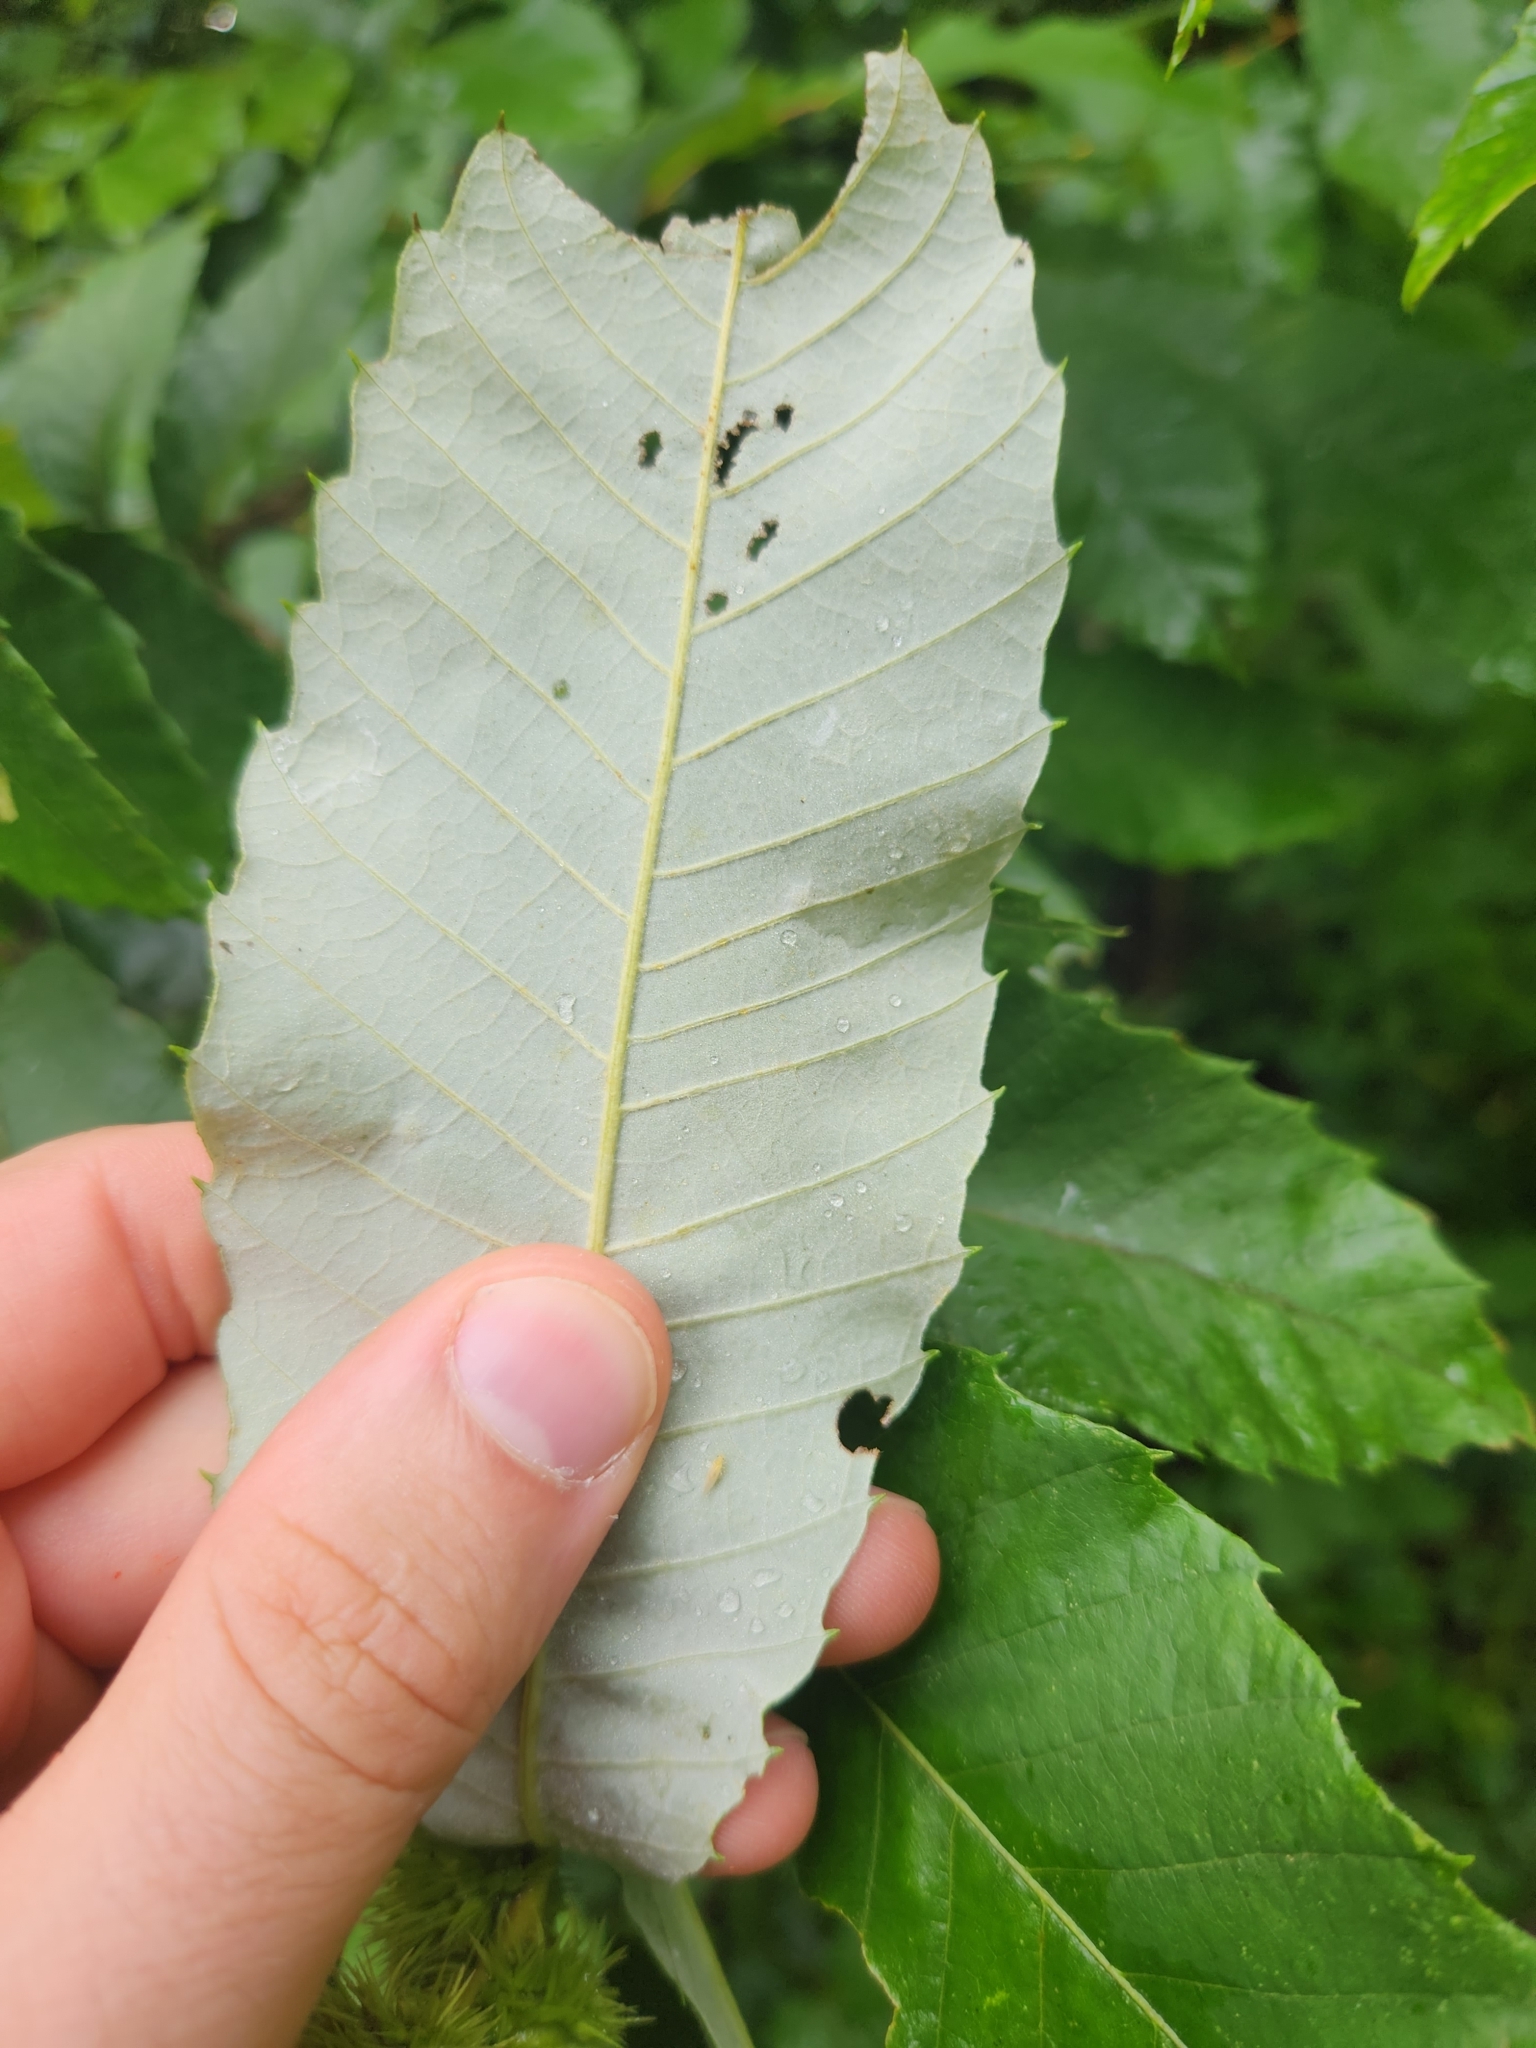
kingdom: Plantae
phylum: Tracheophyta
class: Magnoliopsida
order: Fagales
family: Fagaceae
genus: Castanea
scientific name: Castanea pumila
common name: Chinkapin
